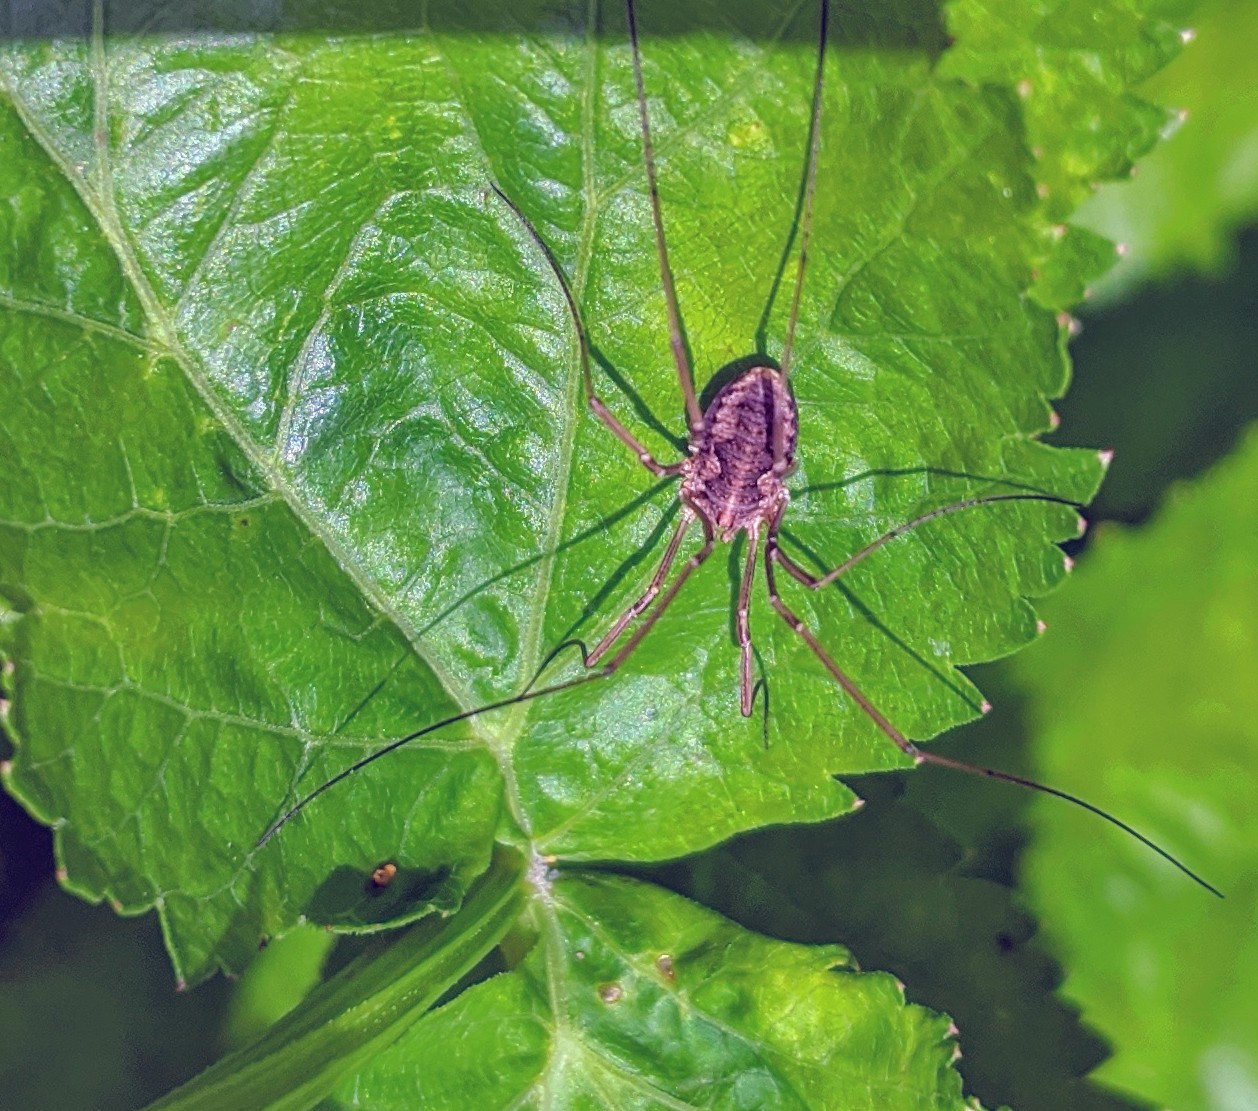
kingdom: Animalia
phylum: Arthropoda
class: Arachnida
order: Opiliones
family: Phalangiidae
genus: Phalangium
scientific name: Phalangium opilio
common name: Daddy longleg
